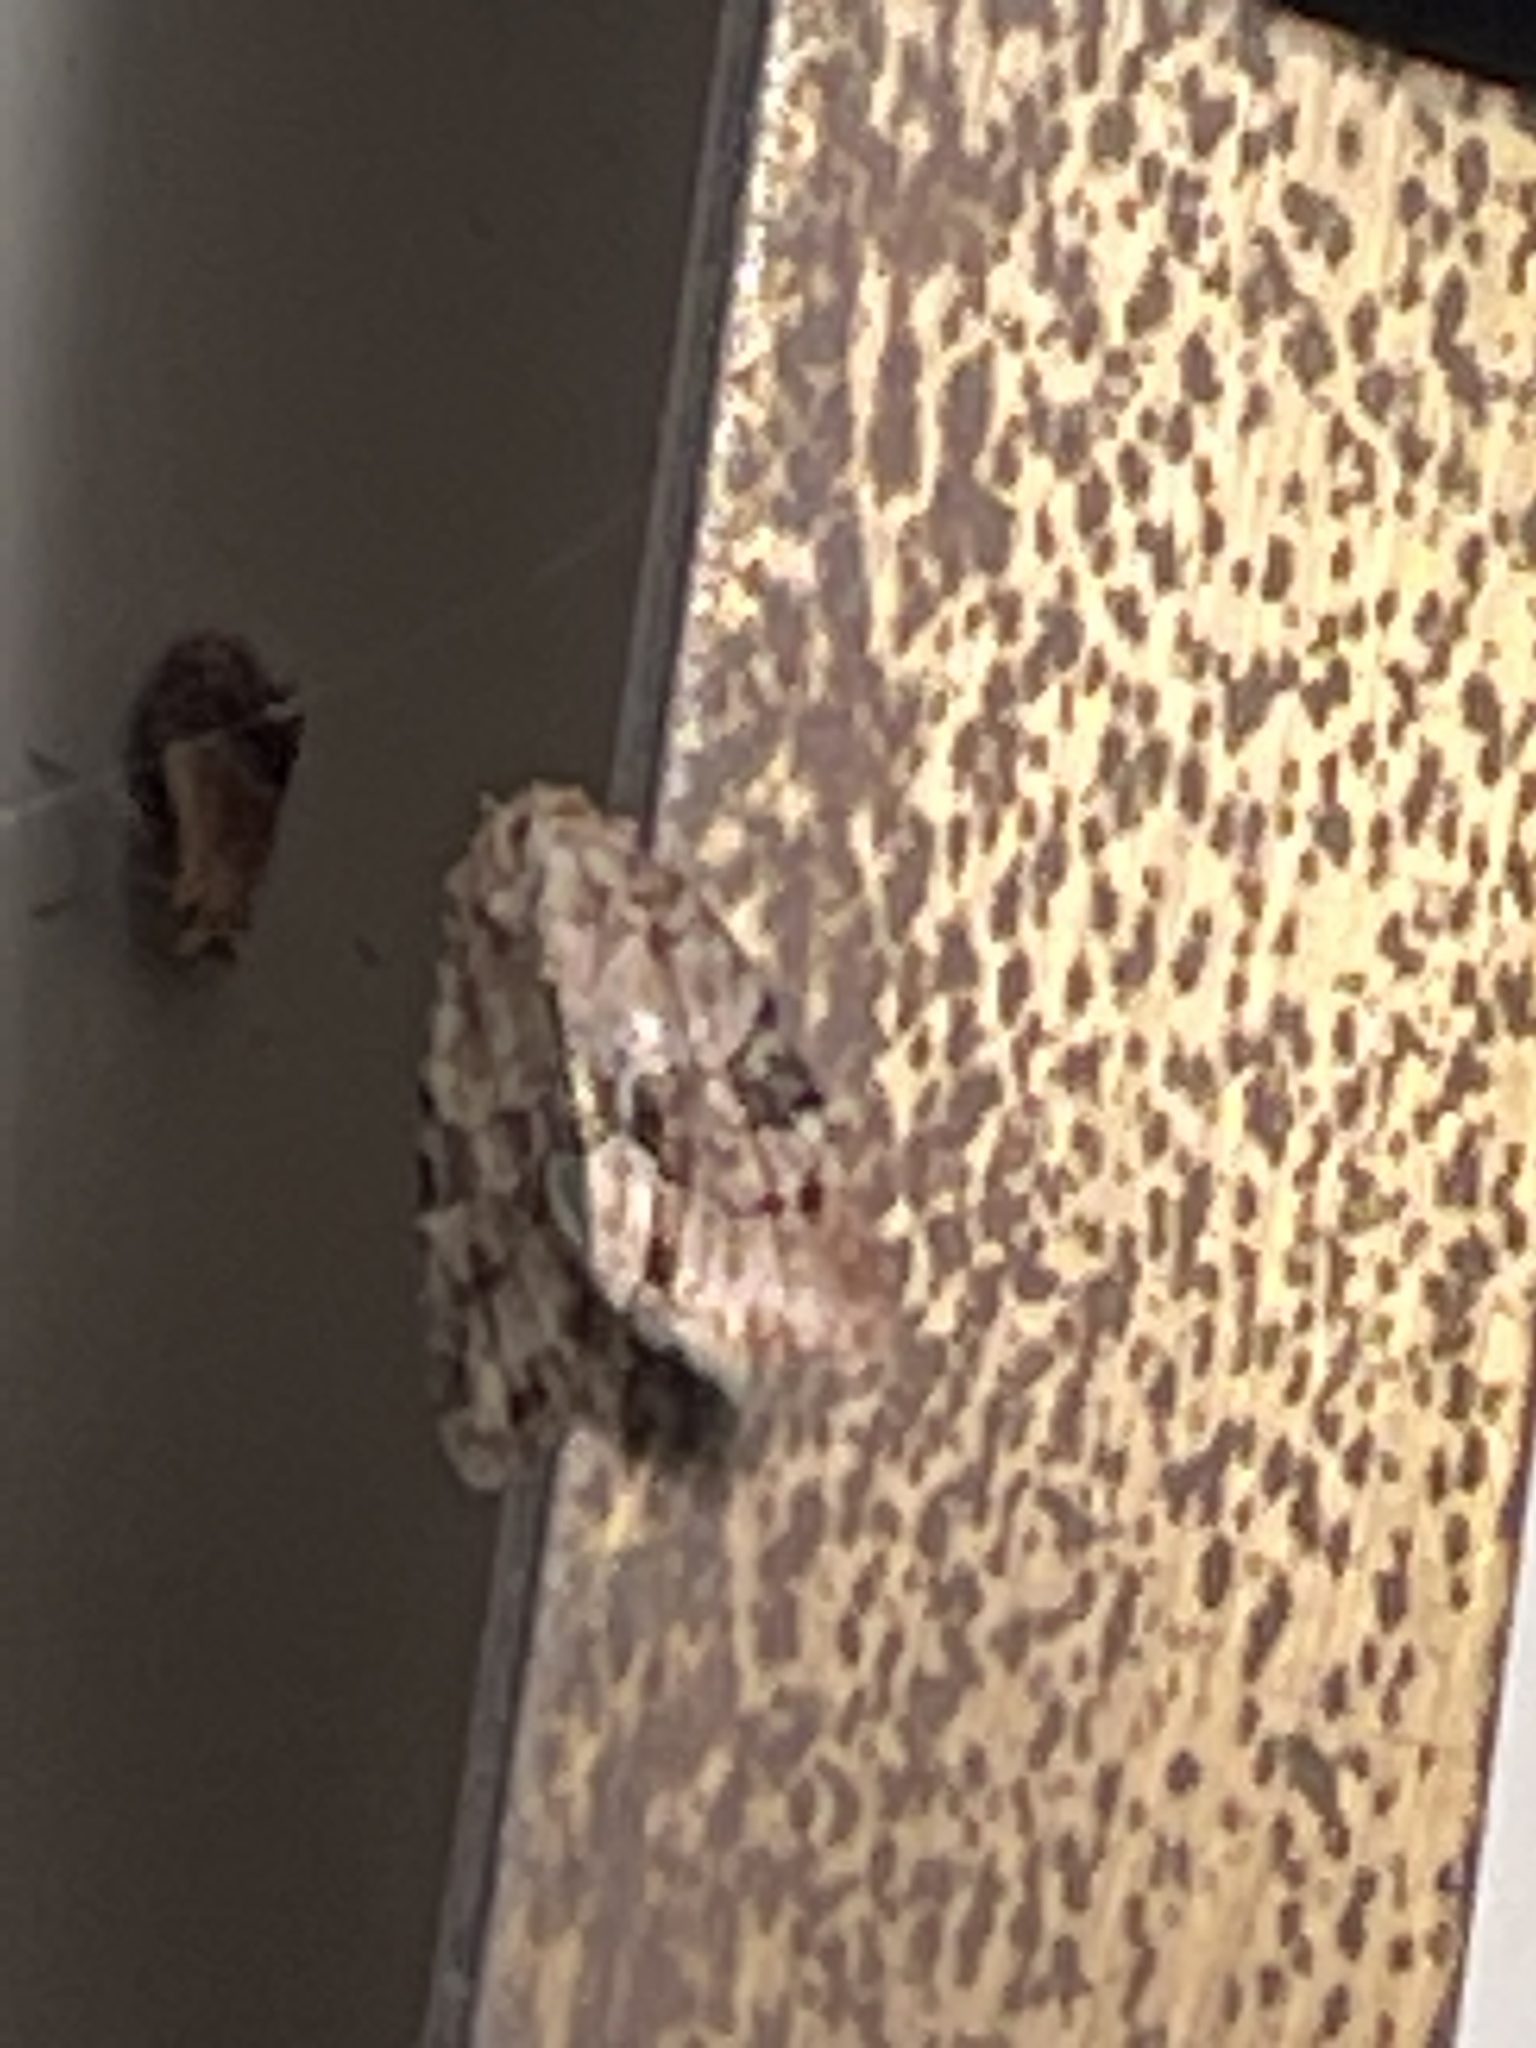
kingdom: Animalia
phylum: Arthropoda
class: Insecta
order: Lepidoptera
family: Noctuidae
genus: Neoligia
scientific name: Neoligia exhausta
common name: Exhausted brocade
